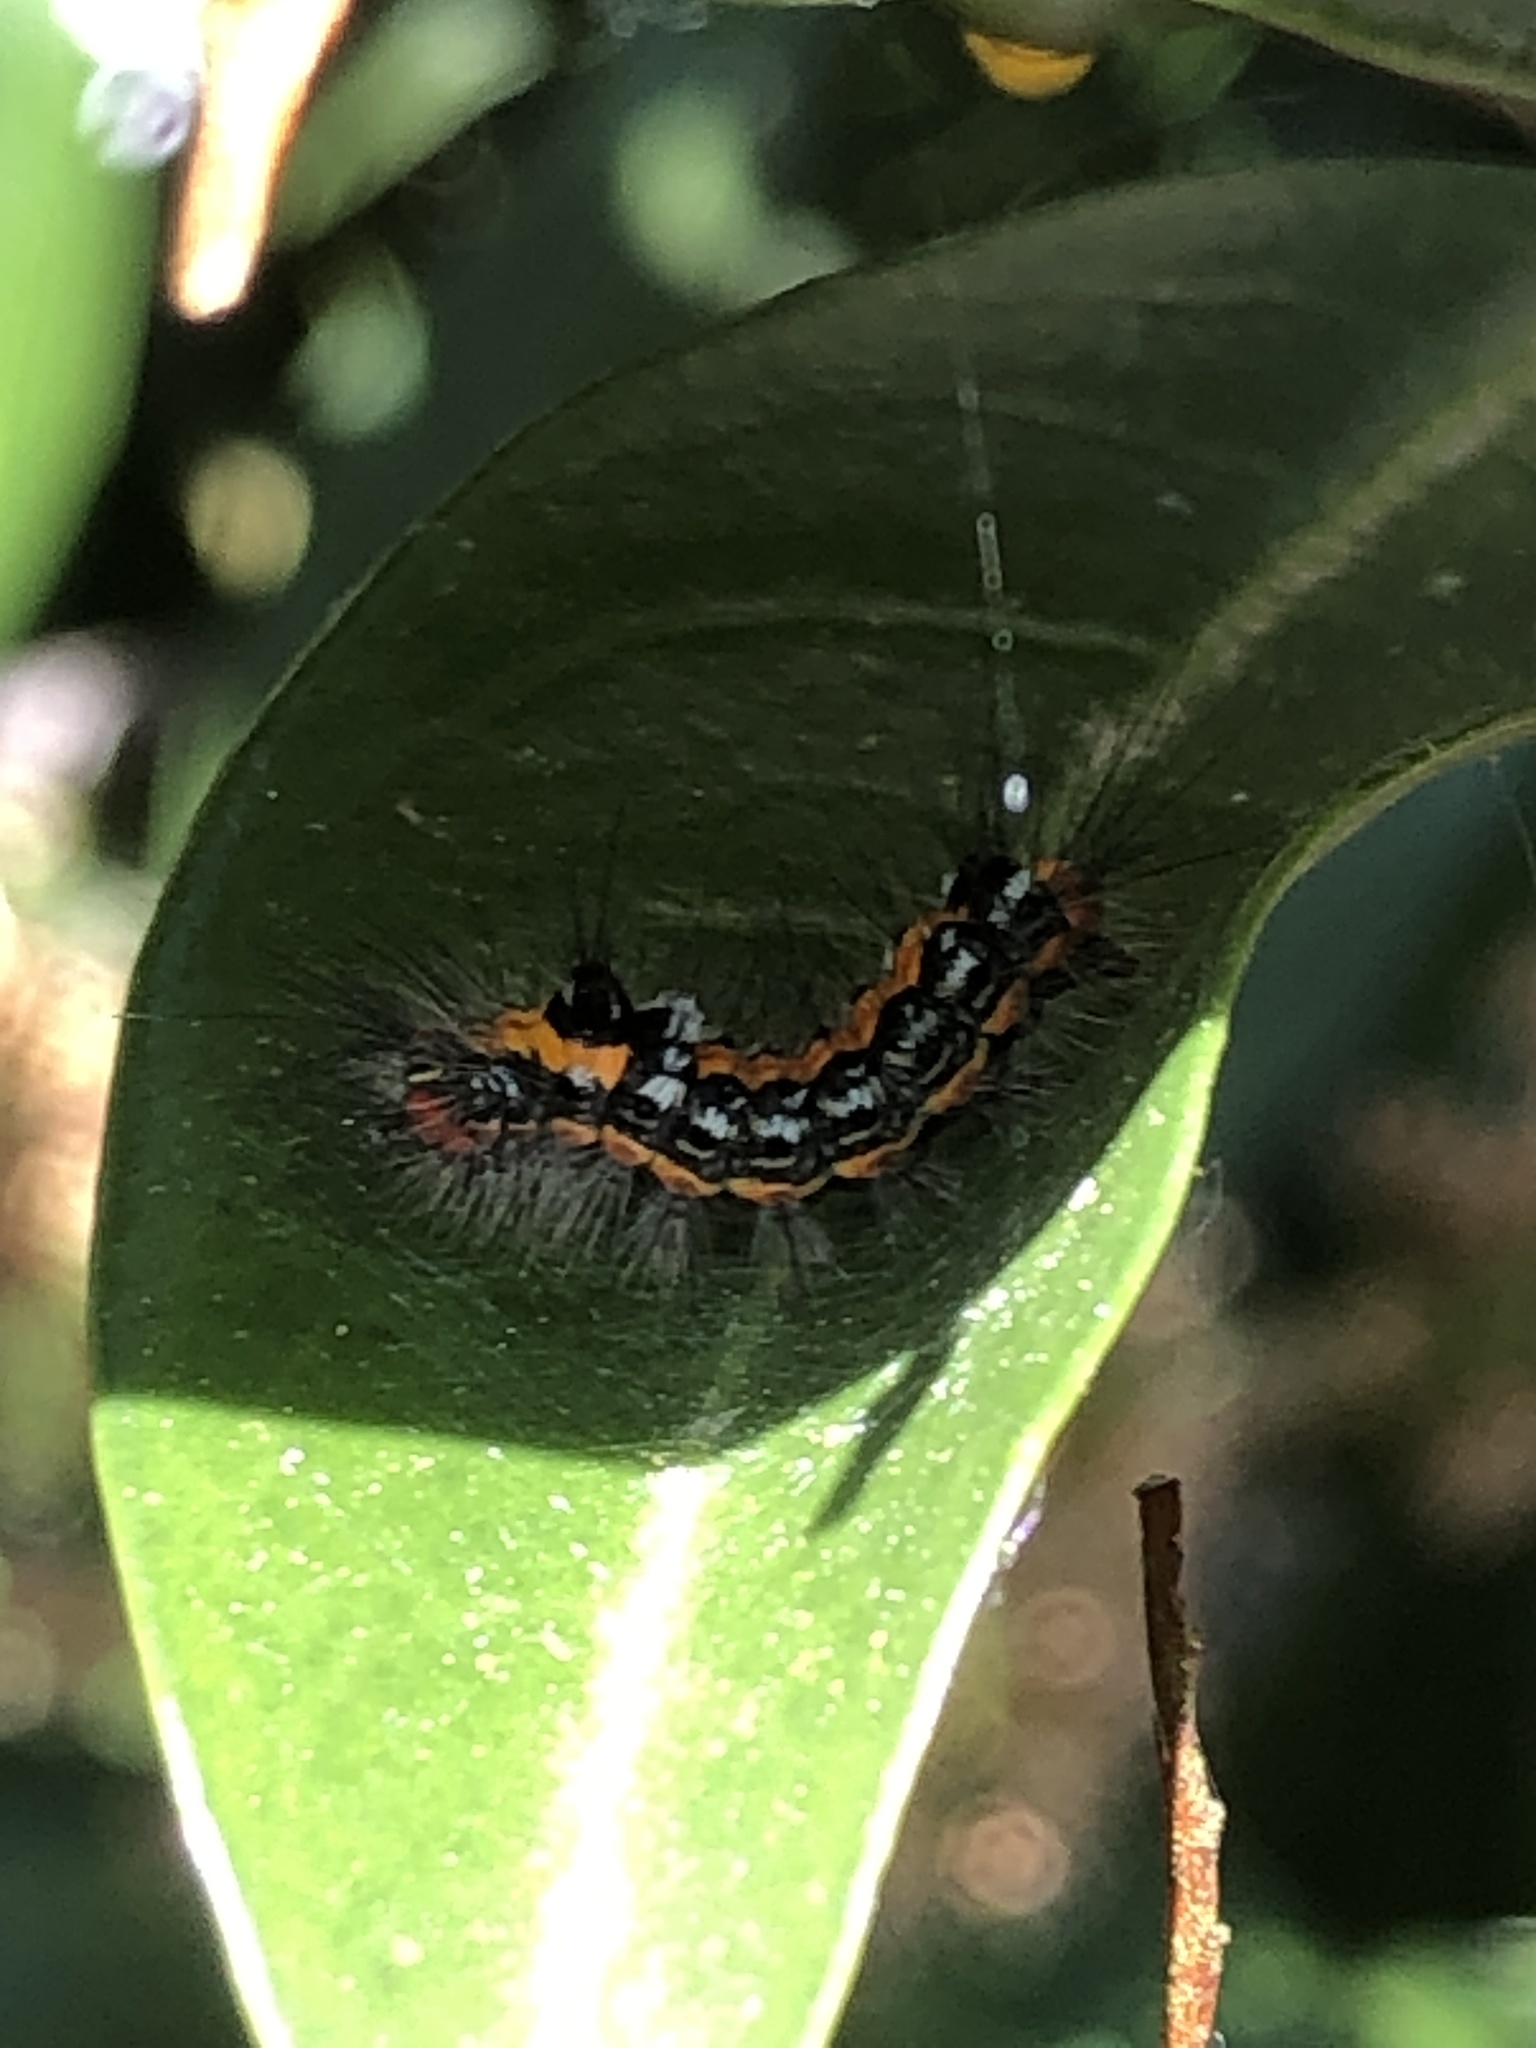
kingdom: Animalia
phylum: Arthropoda
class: Insecta
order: Lepidoptera
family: Erebidae
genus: Sphrageidus
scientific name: Sphrageidus similis
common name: Yellow-tail
